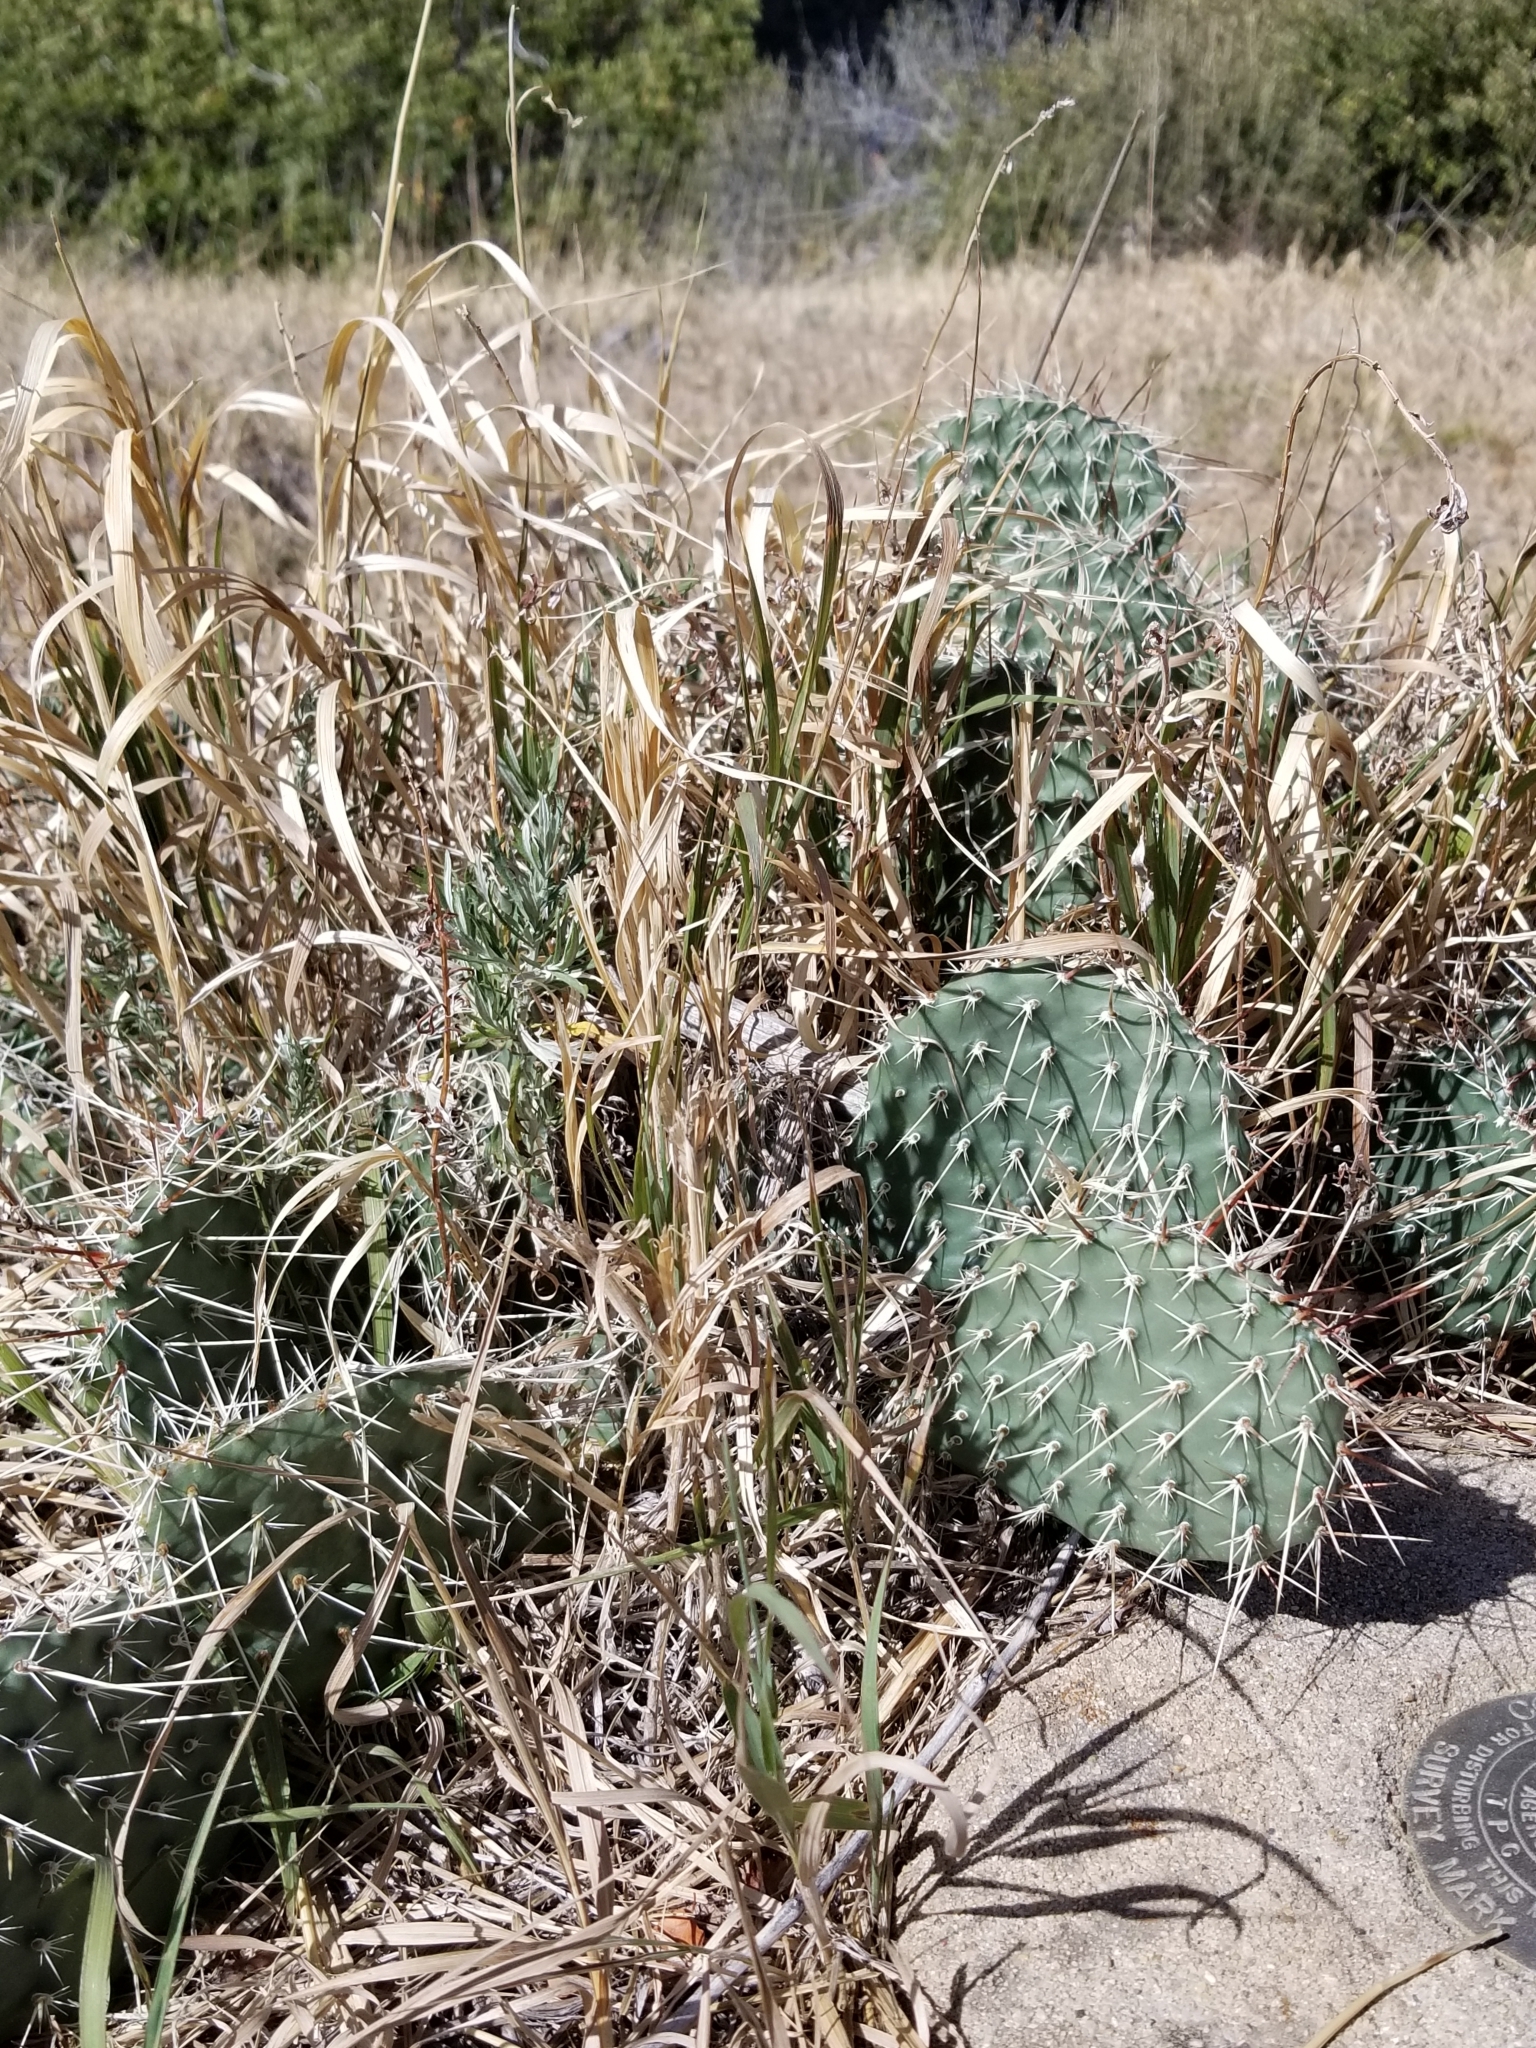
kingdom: Plantae
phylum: Tracheophyta
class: Magnoliopsida
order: Caryophyllales
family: Cactaceae
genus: Opuntia
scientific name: Opuntia polyacantha
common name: Plains prickly-pear
